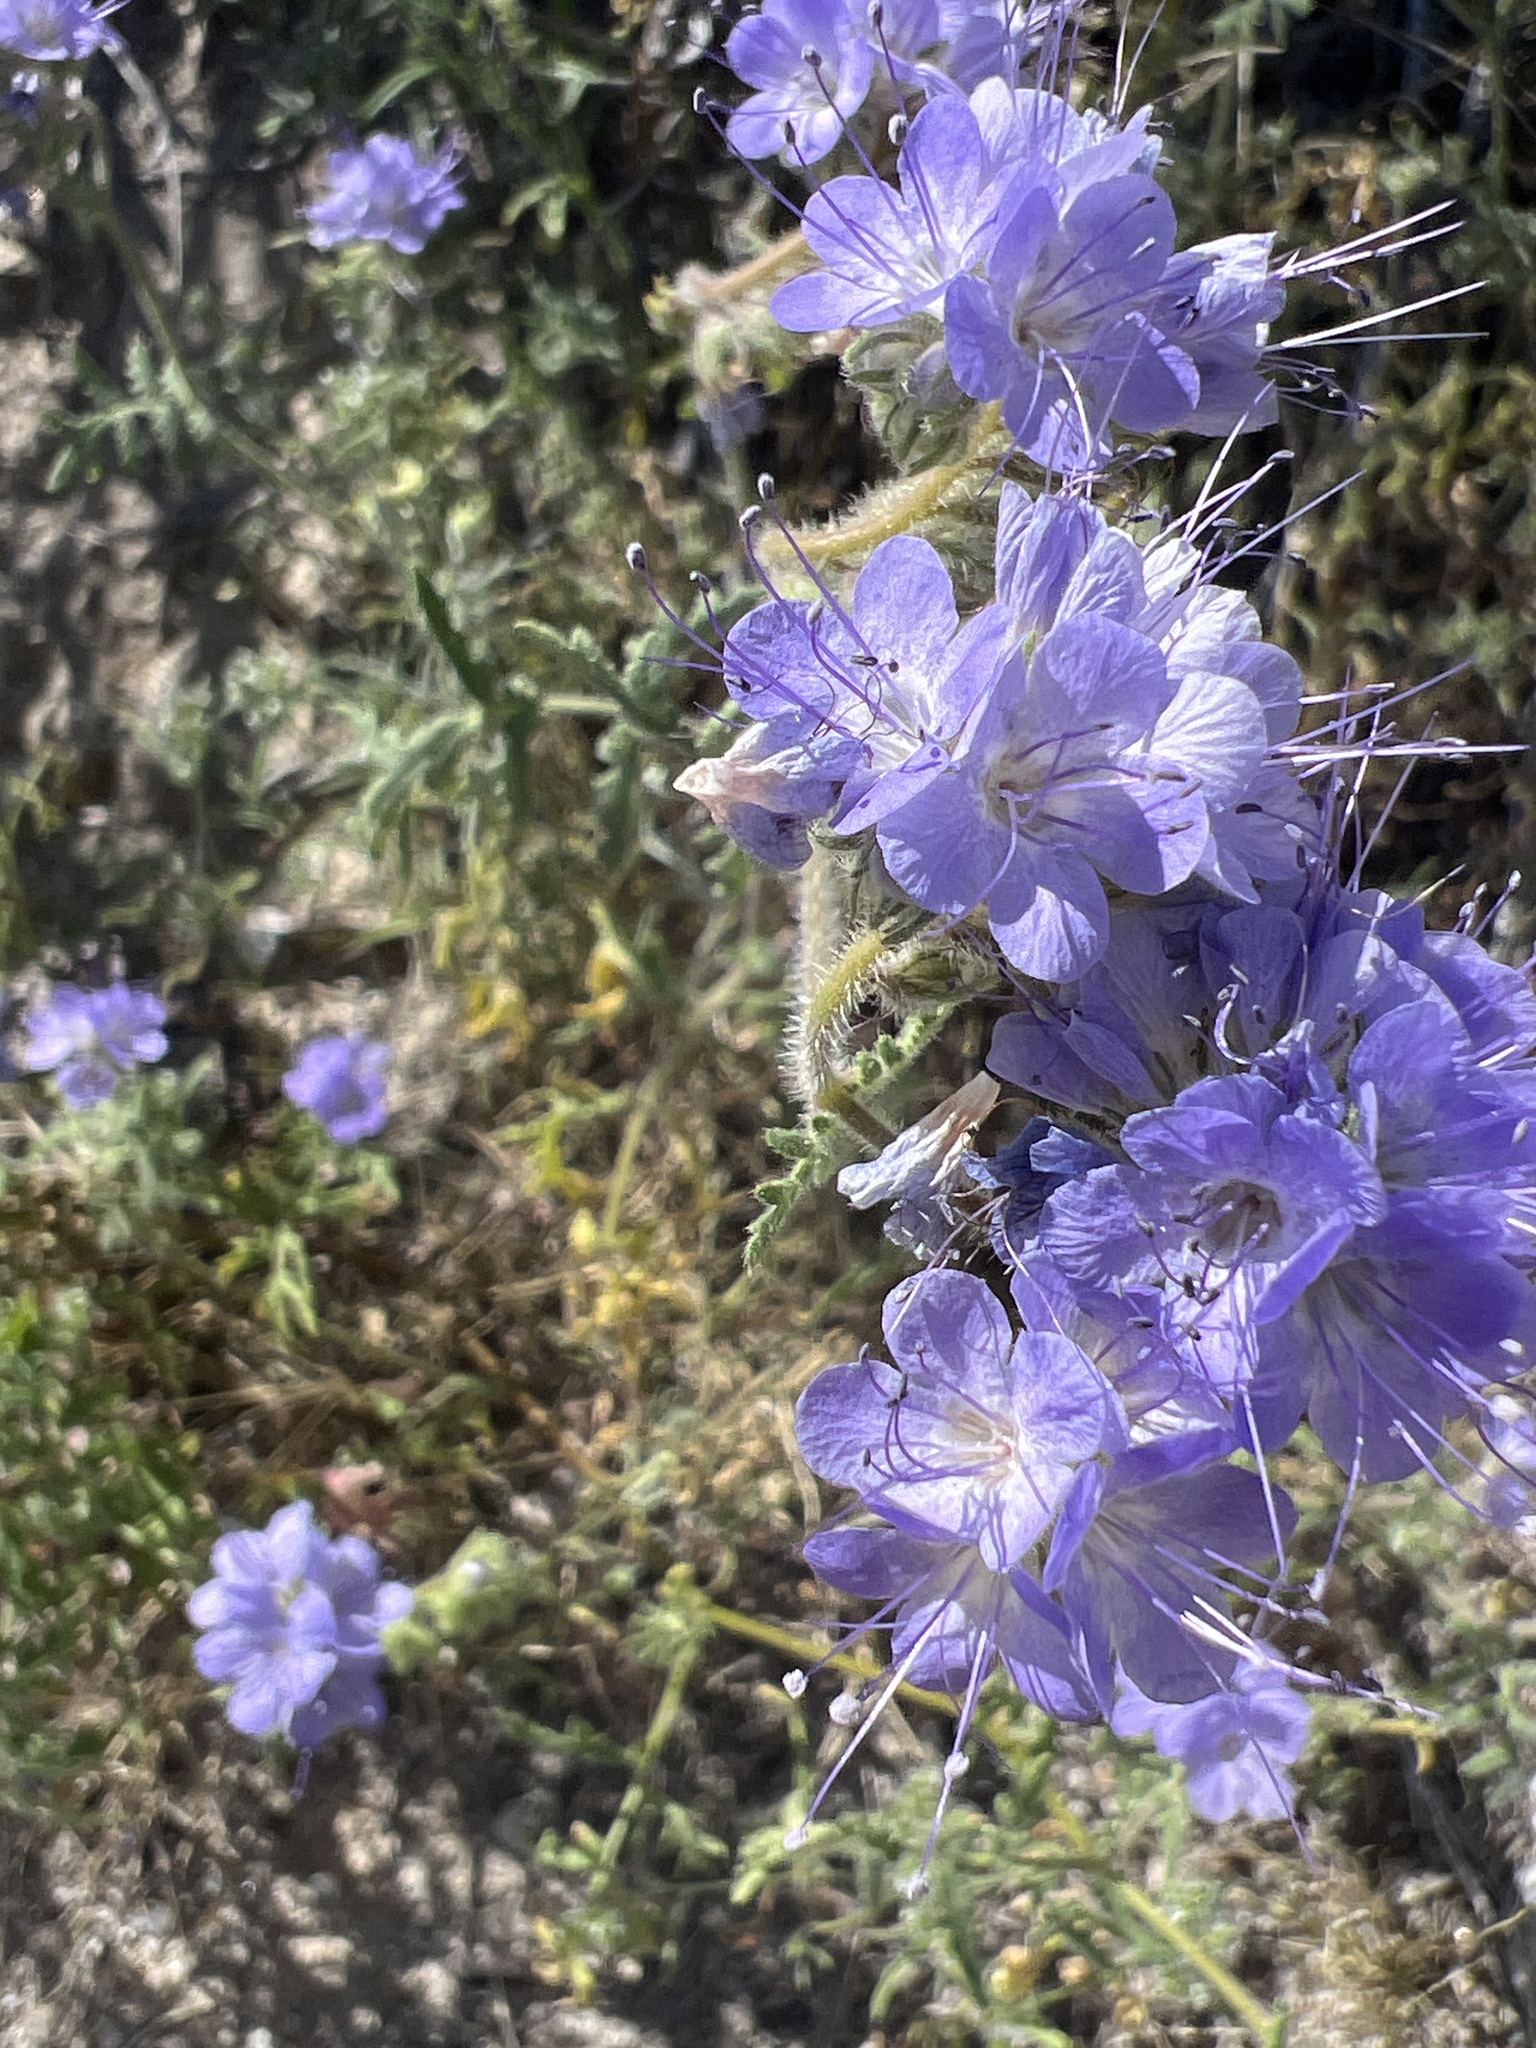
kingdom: Plantae
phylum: Tracheophyta
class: Magnoliopsida
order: Boraginales
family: Hydrophyllaceae
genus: Phacelia
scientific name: Phacelia distans
